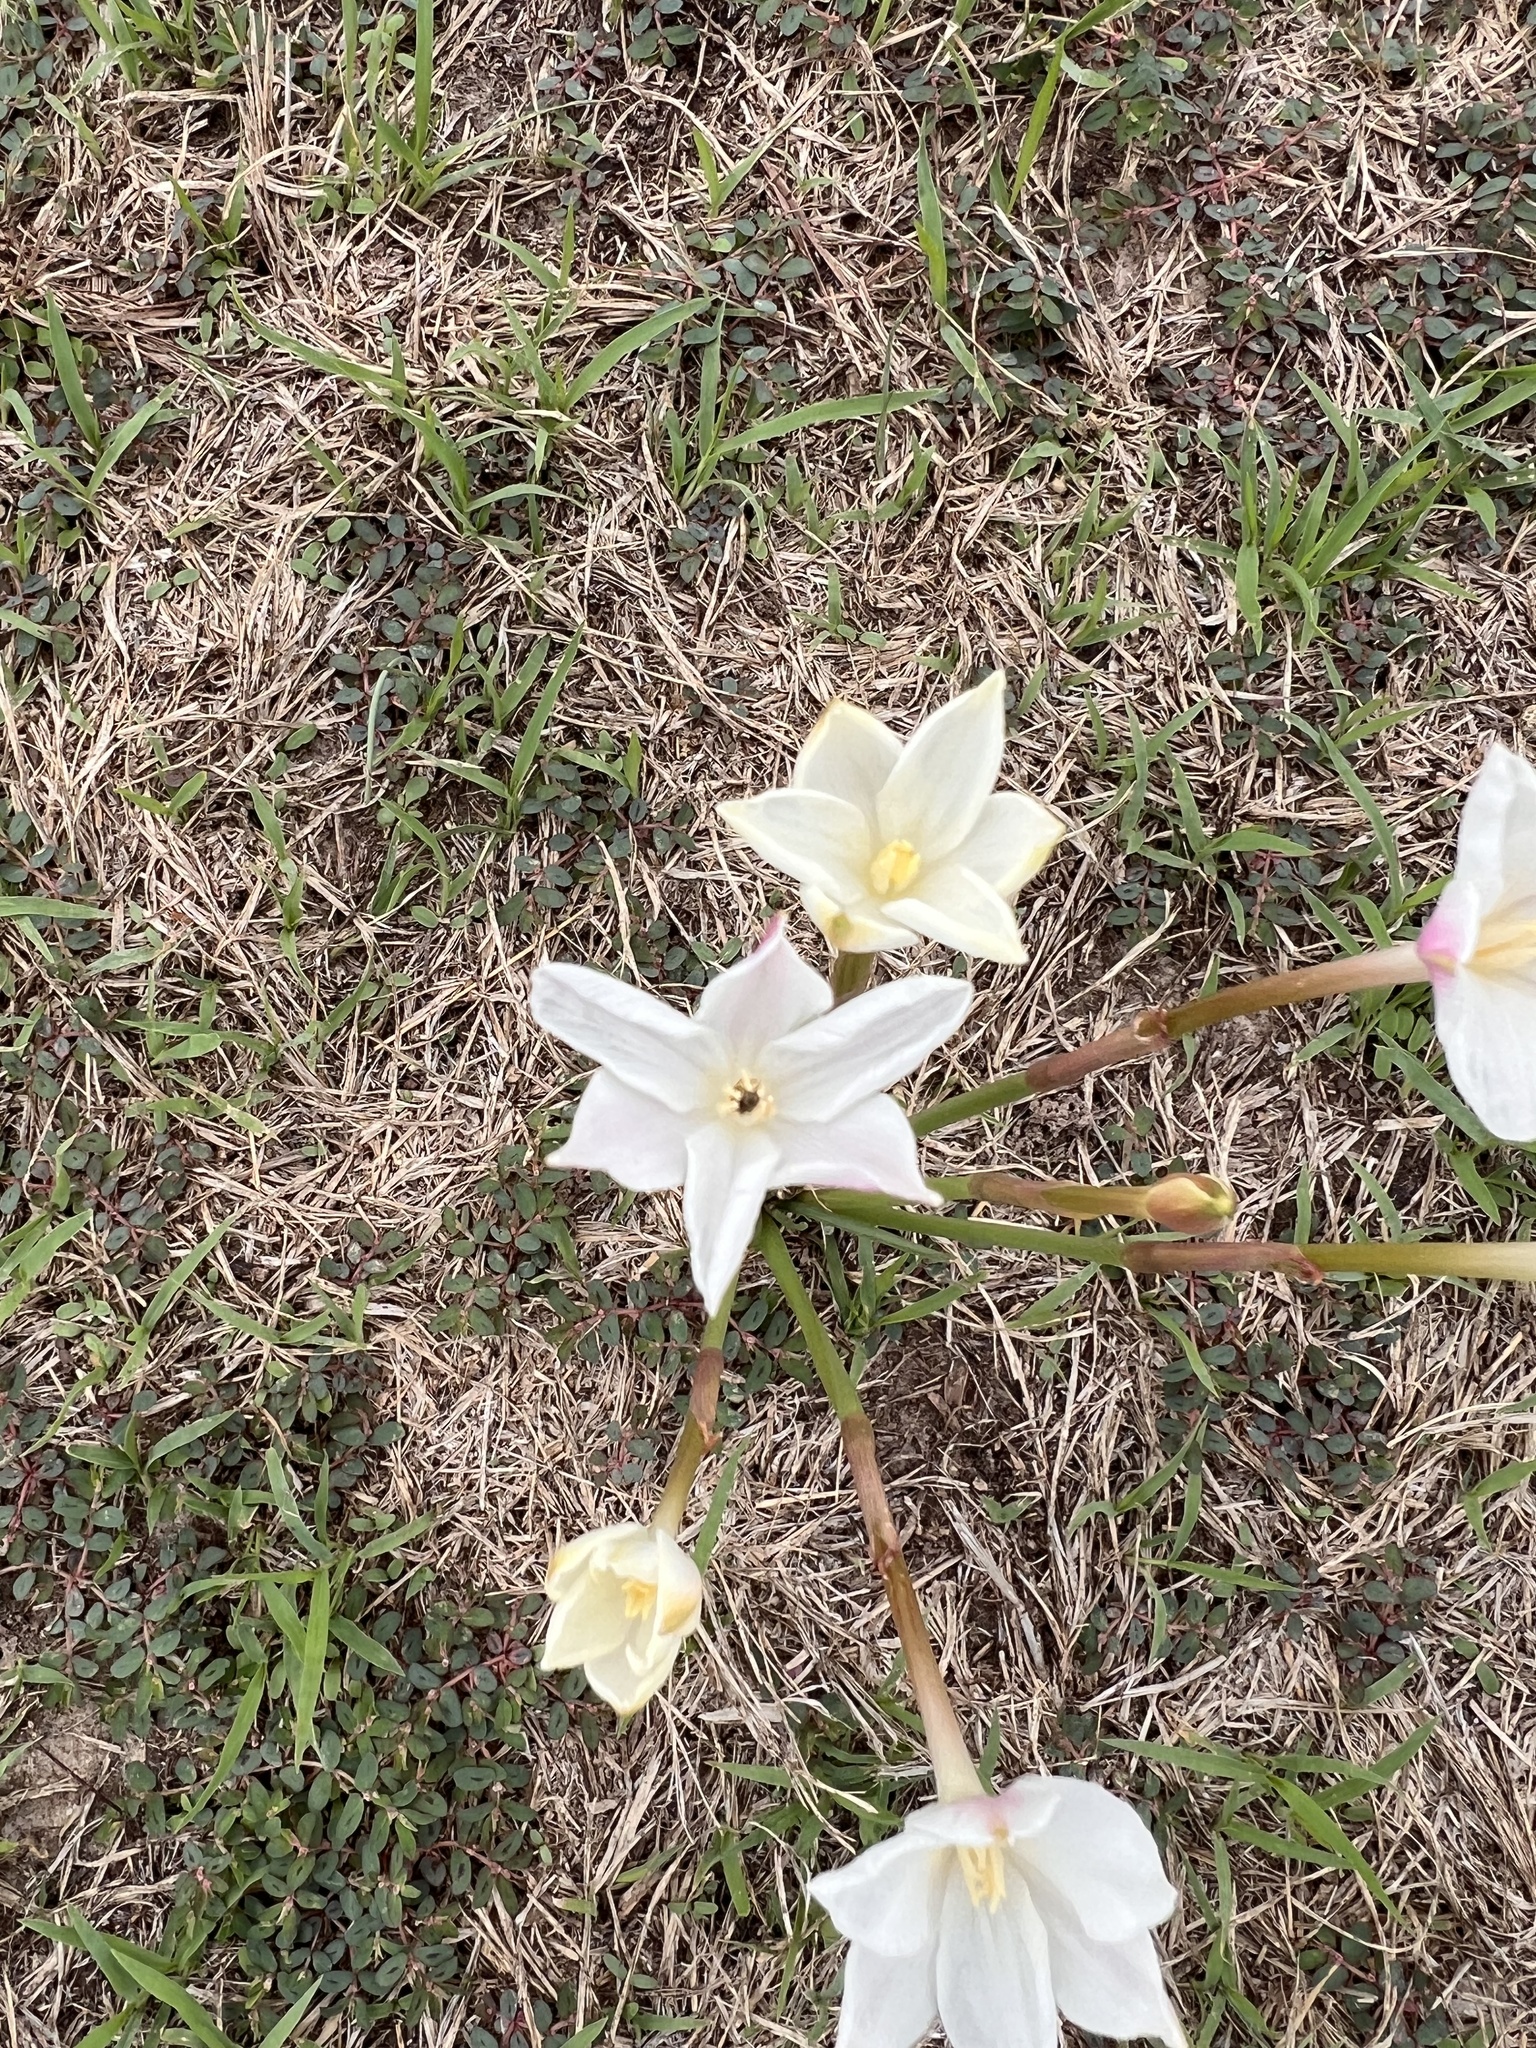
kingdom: Plantae
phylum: Tracheophyta
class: Liliopsida
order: Asparagales
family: Amaryllidaceae
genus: Zephyranthes
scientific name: Zephyranthes chlorosolen
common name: Evening rain-lily
